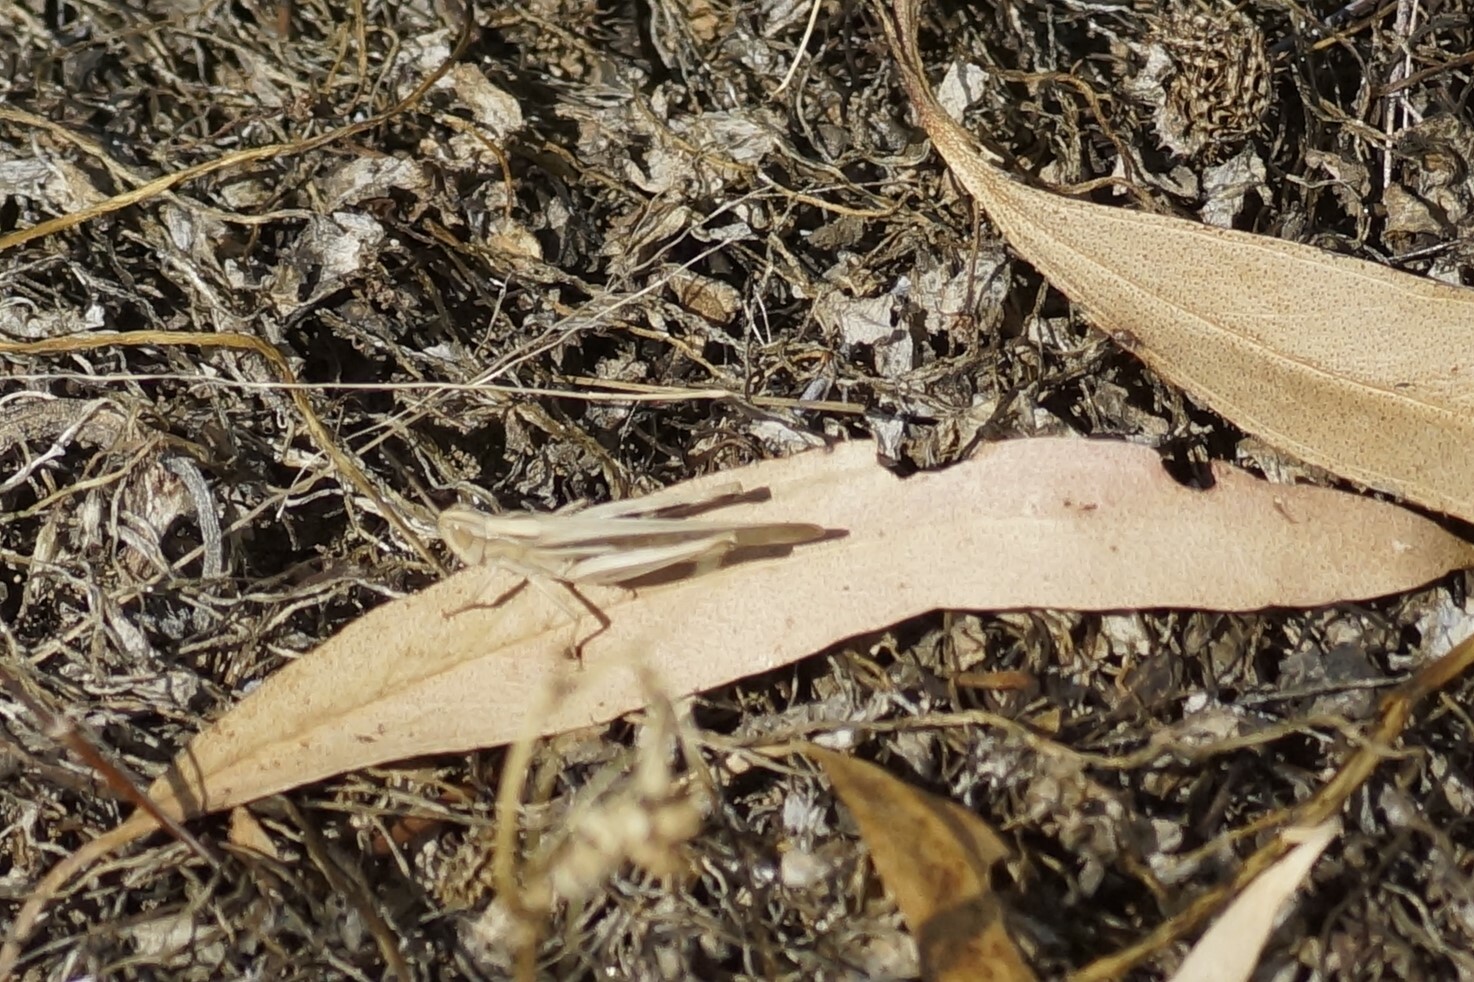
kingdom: Animalia
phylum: Arthropoda
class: Insecta
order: Orthoptera
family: Acrididae
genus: Aiolopus
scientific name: Aiolopus thalassinus
